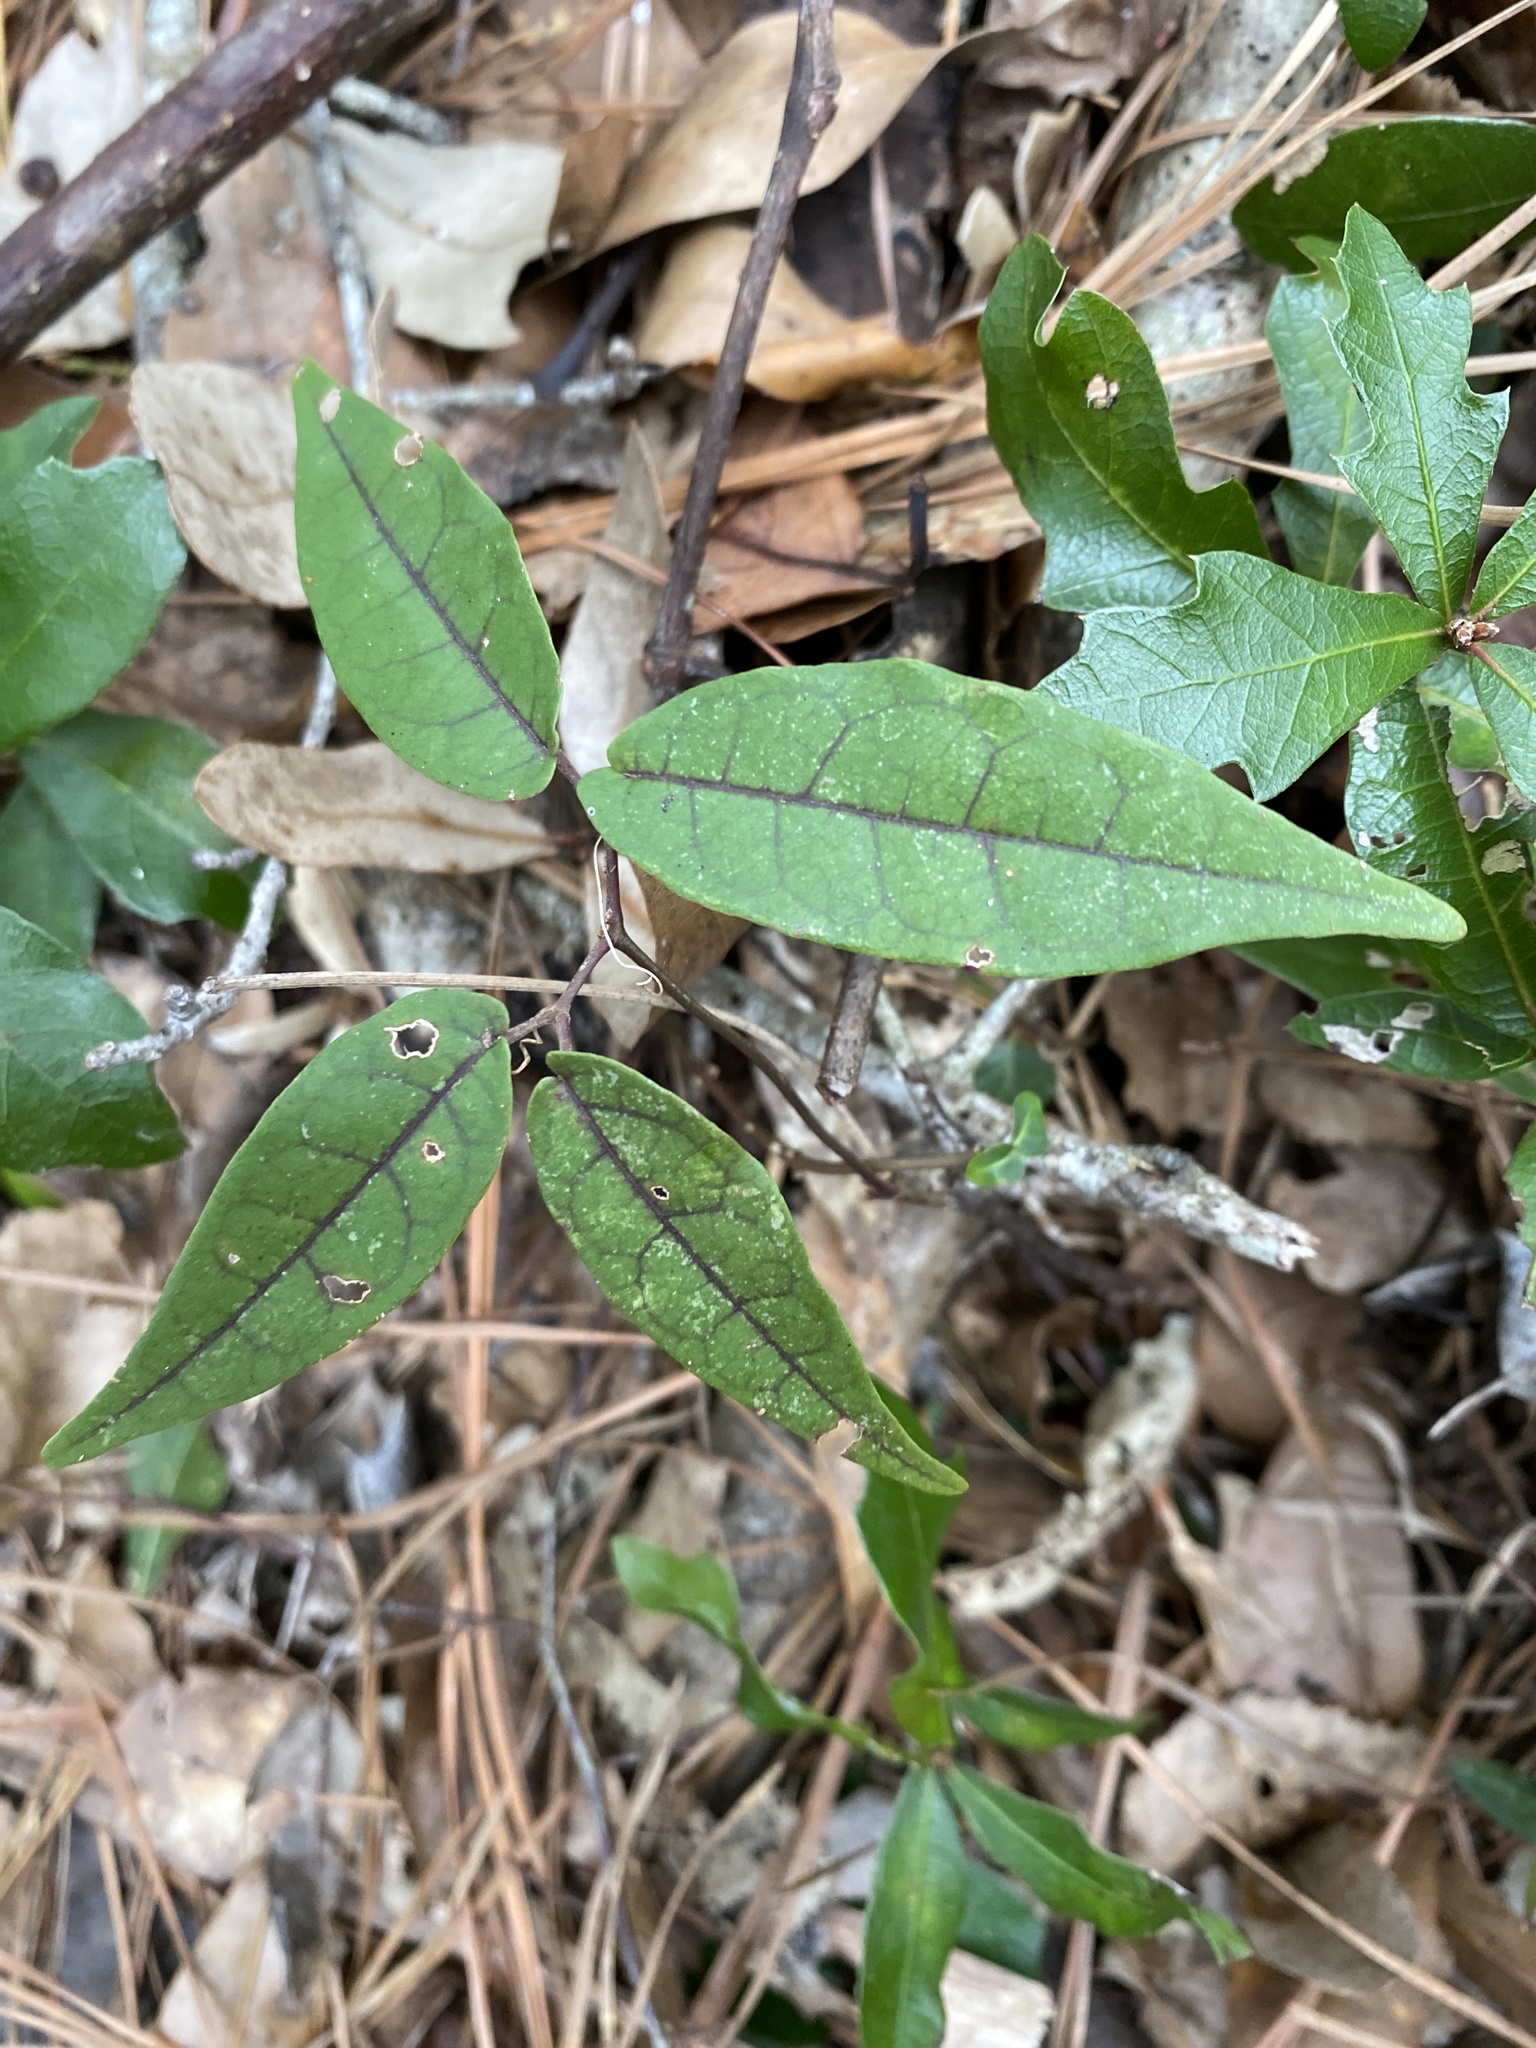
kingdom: Plantae
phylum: Tracheophyta
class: Magnoliopsida
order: Lamiales
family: Bignoniaceae
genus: Bignonia
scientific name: Bignonia capreolata
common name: Crossvine
